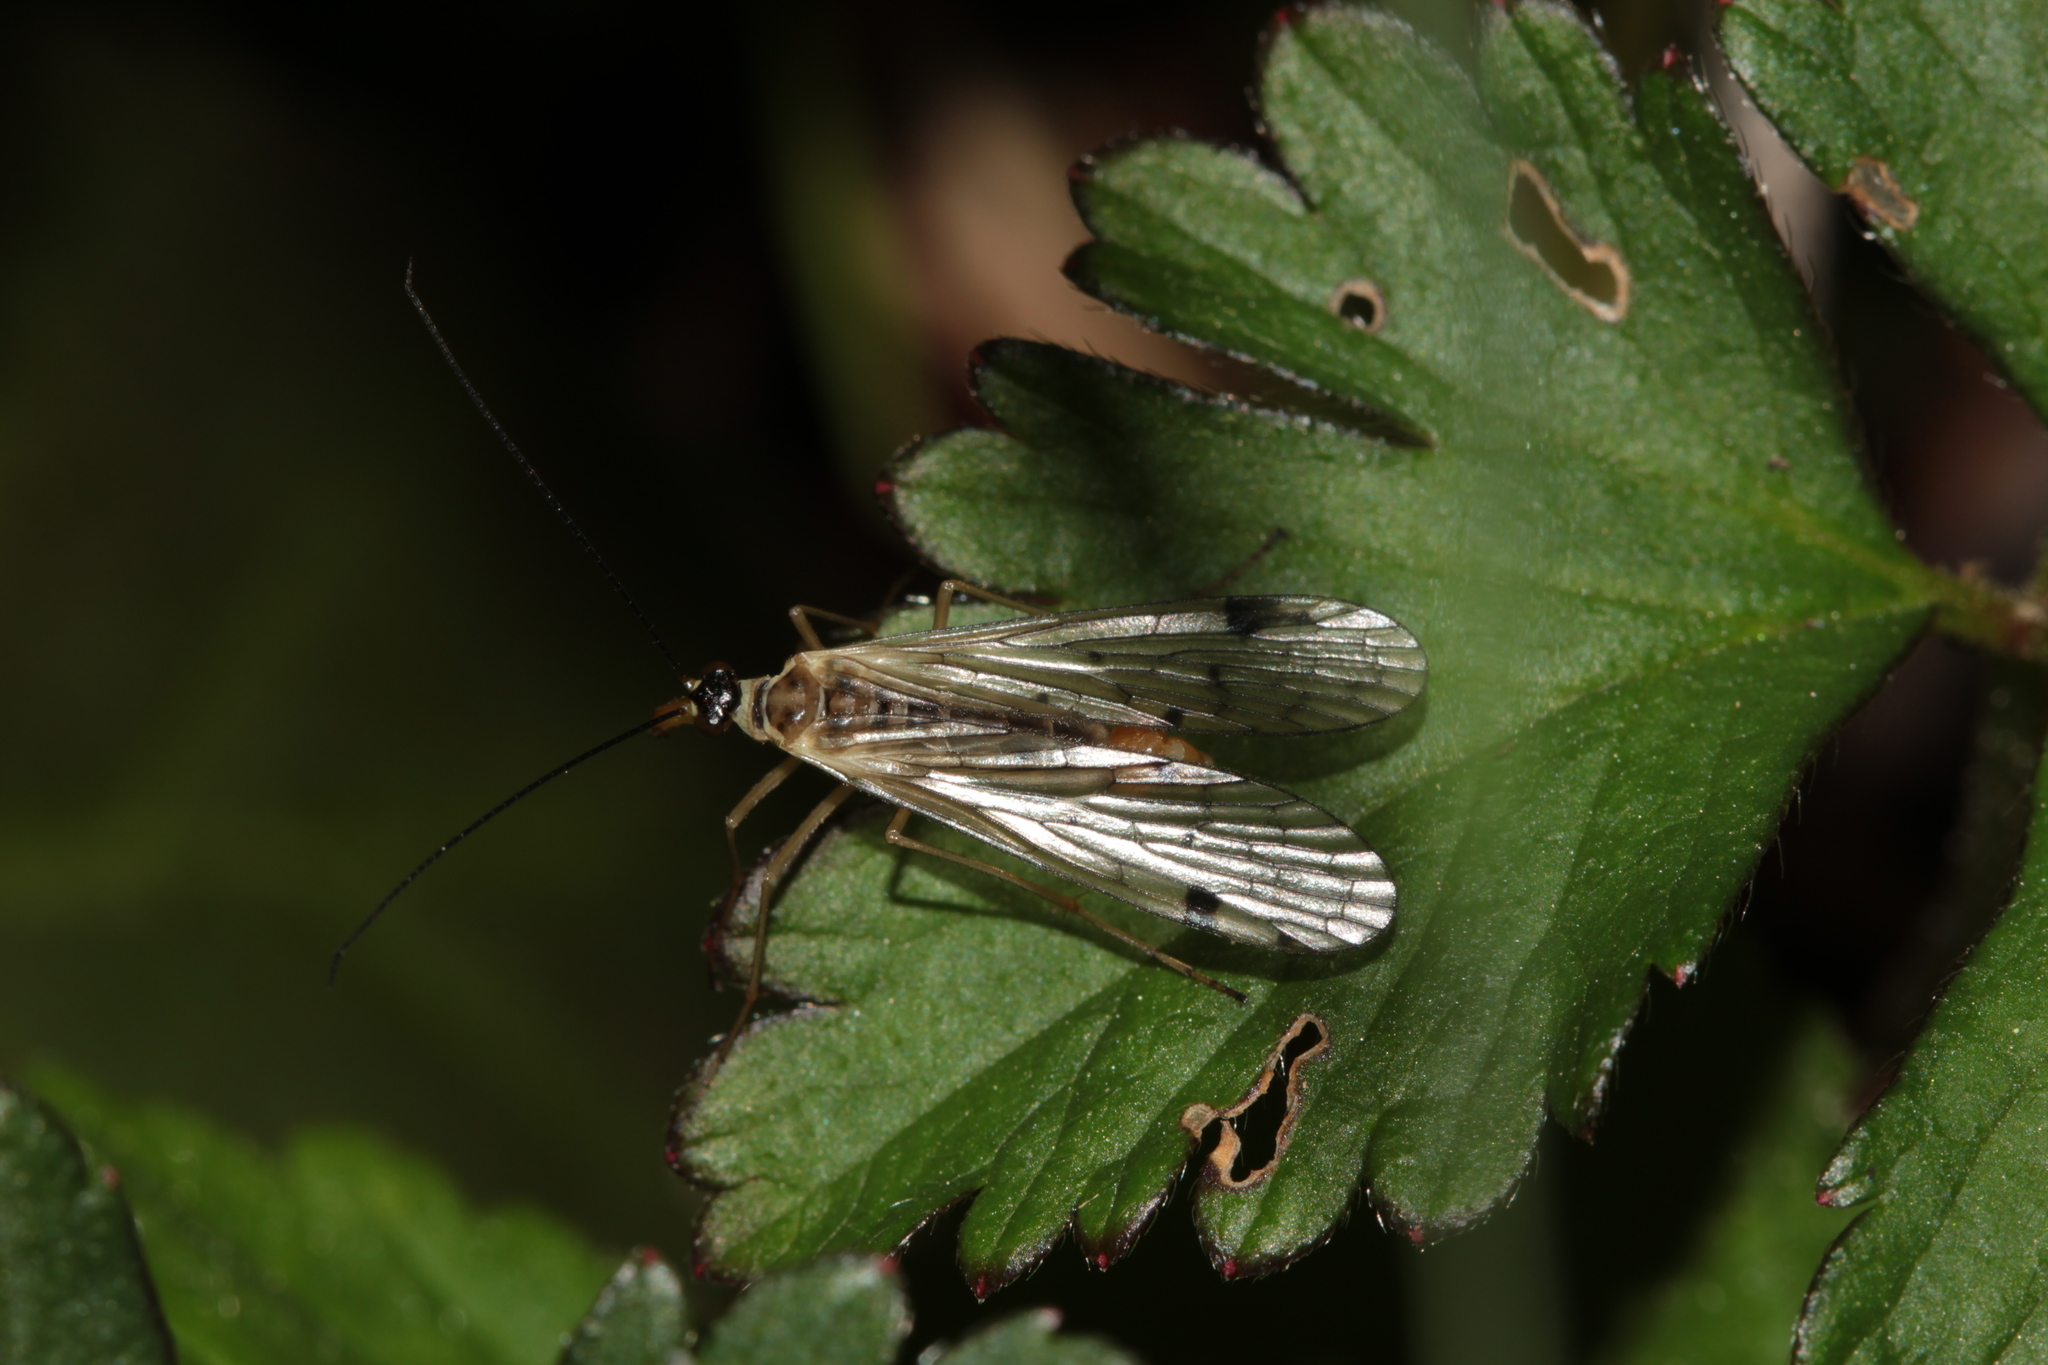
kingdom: Animalia
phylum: Arthropoda
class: Insecta
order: Mecoptera
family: Panorpidae
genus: Panorpa
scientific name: Panorpa alpina
